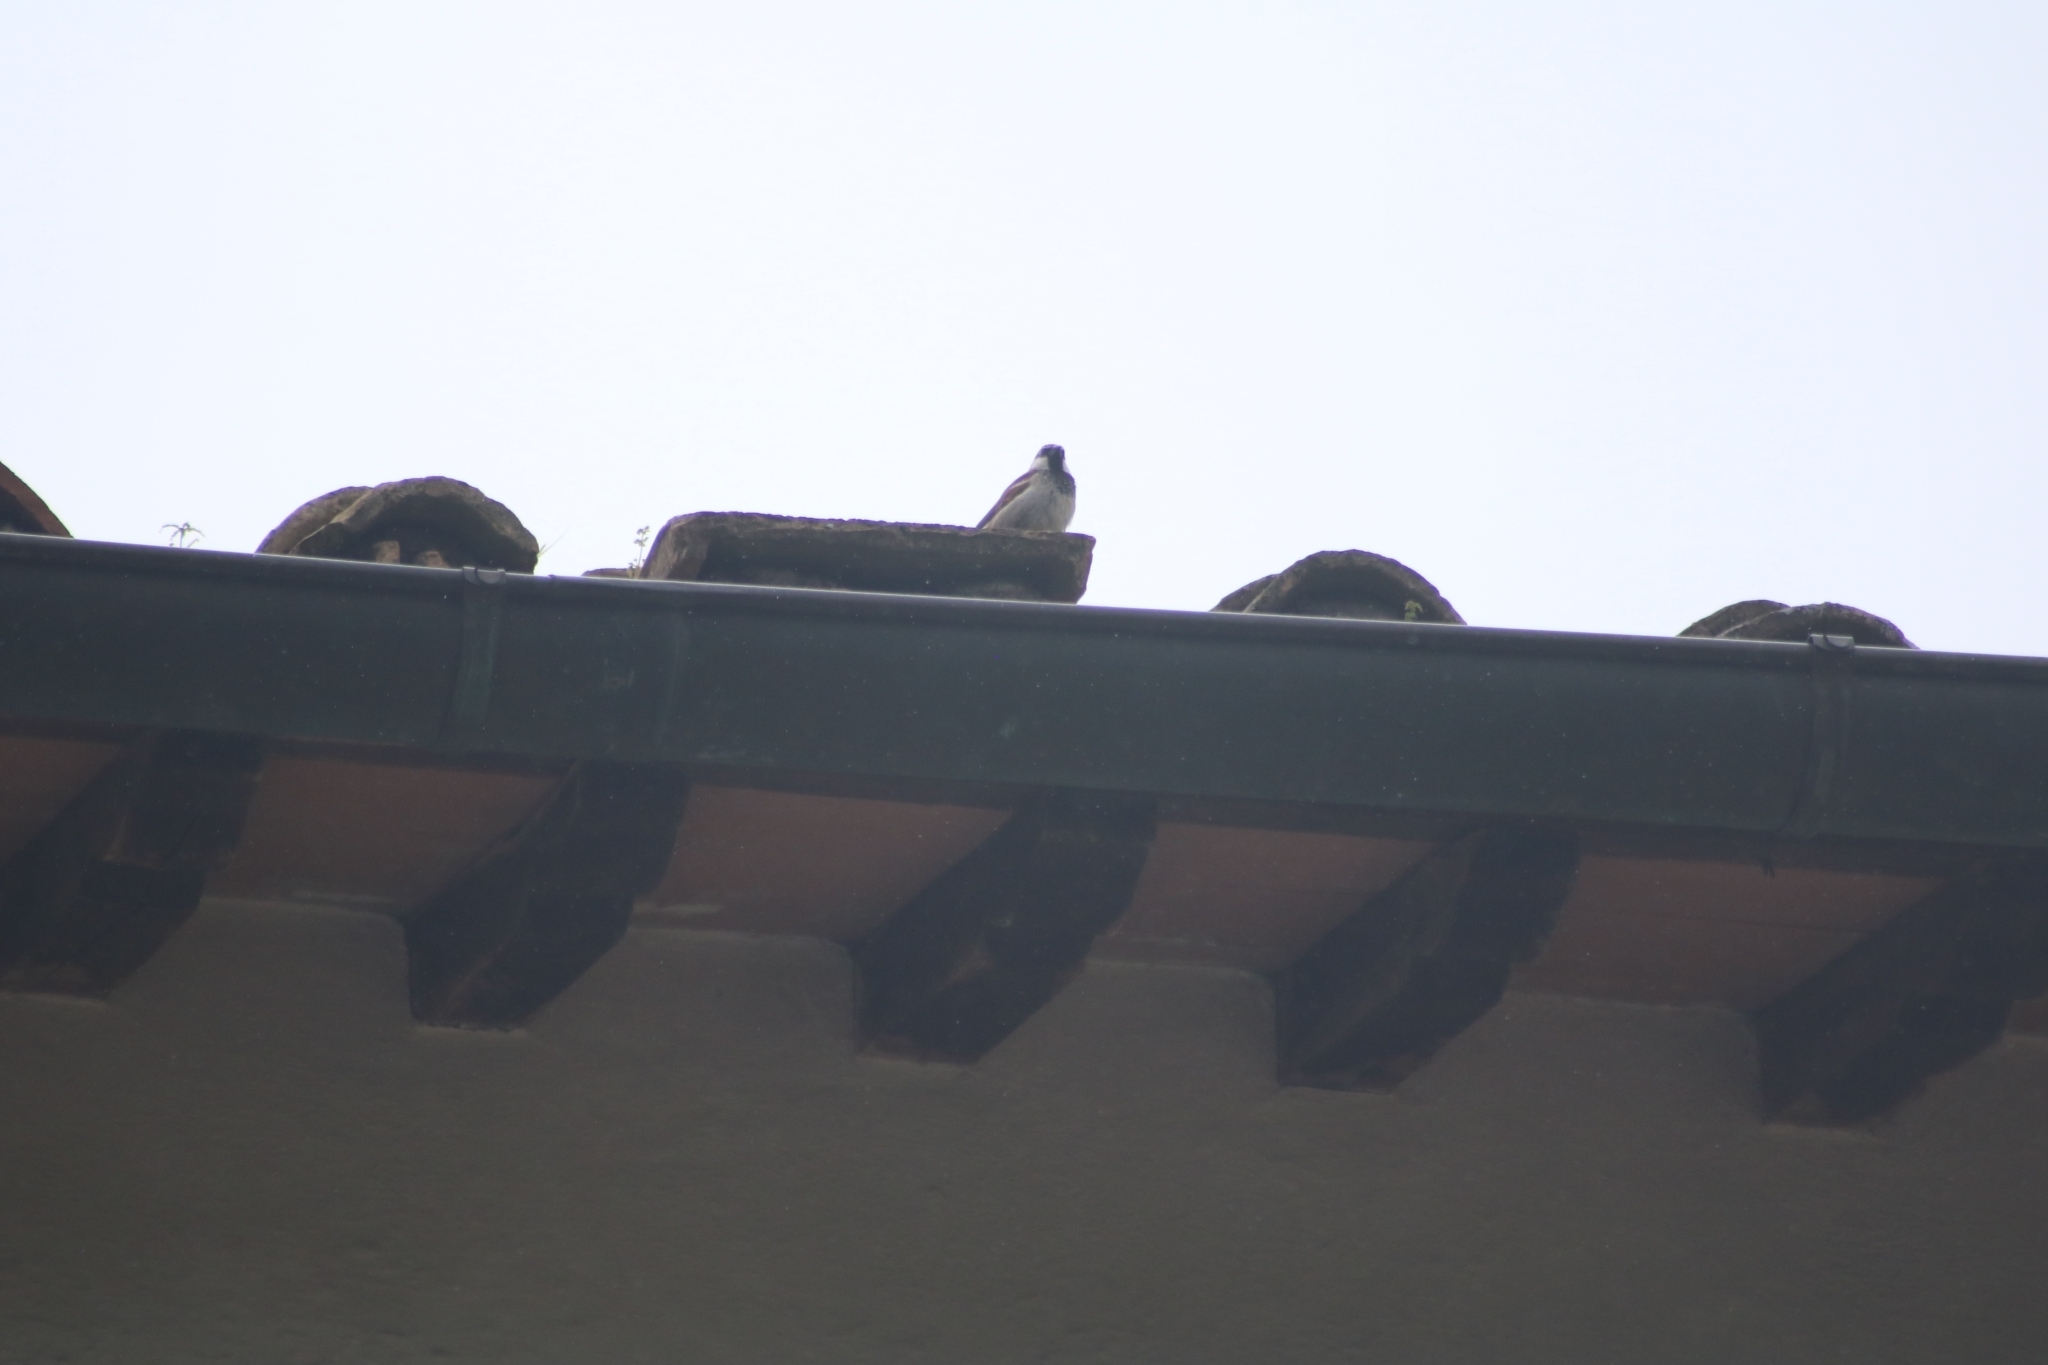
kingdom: Animalia
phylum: Chordata
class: Aves
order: Passeriformes
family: Passeridae
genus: Passer
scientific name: Passer italiae
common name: Italian sparrow
